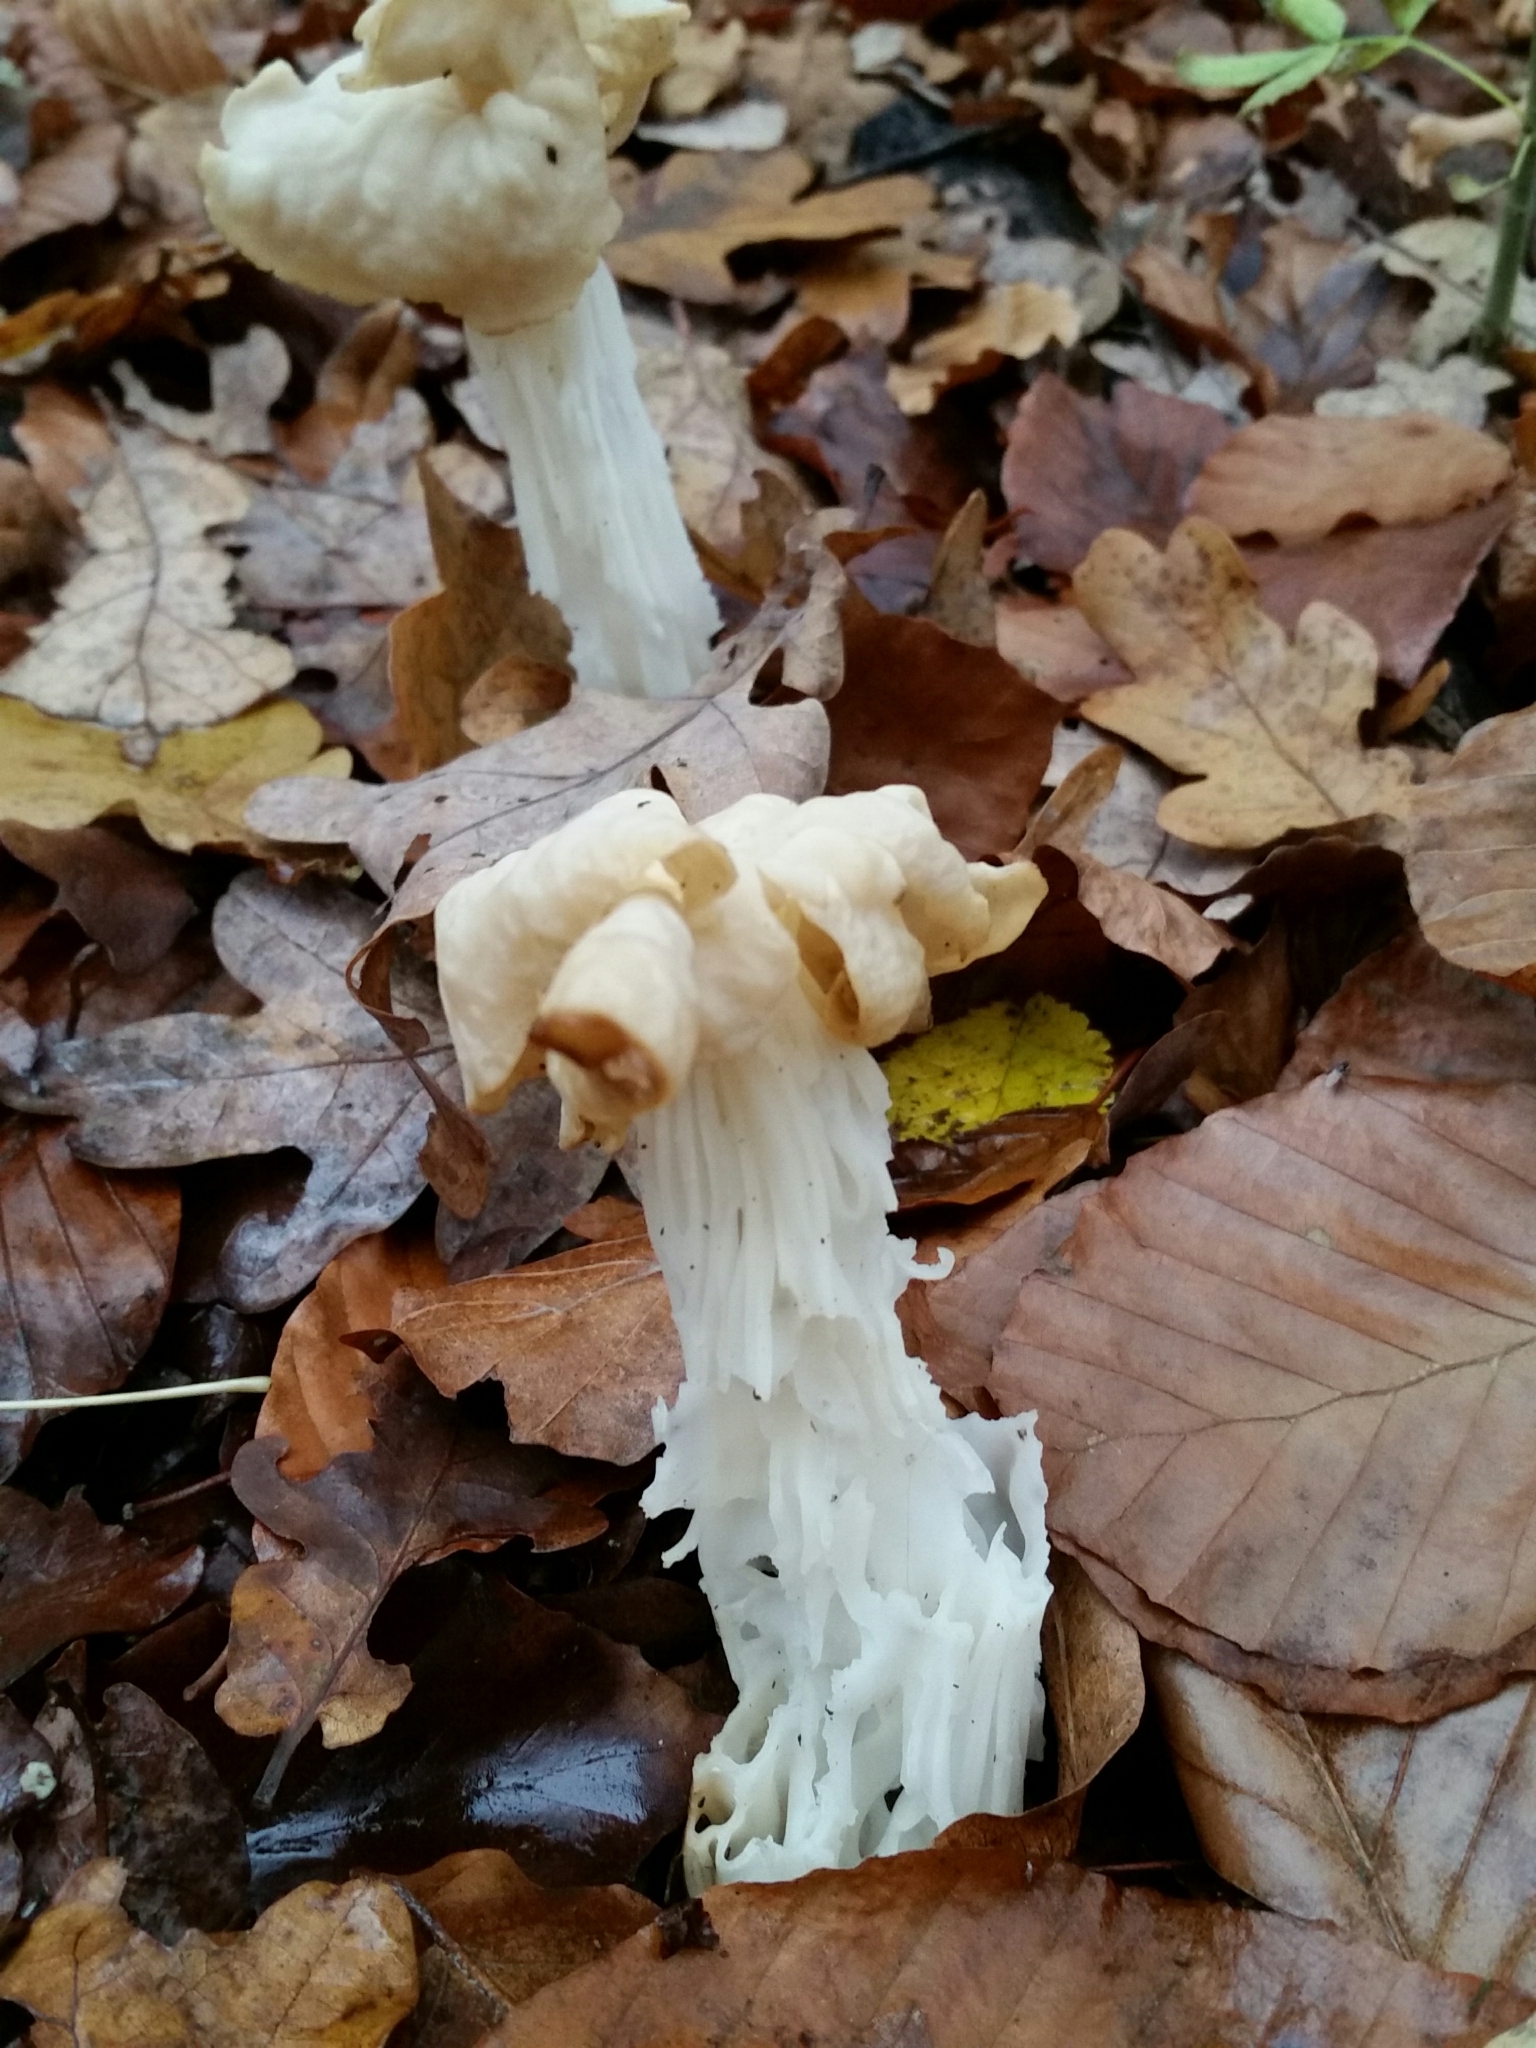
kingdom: Fungi
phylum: Ascomycota
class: Pezizomycetes
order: Pezizales
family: Helvellaceae
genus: Helvella
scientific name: Helvella crispa
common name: White saddle
